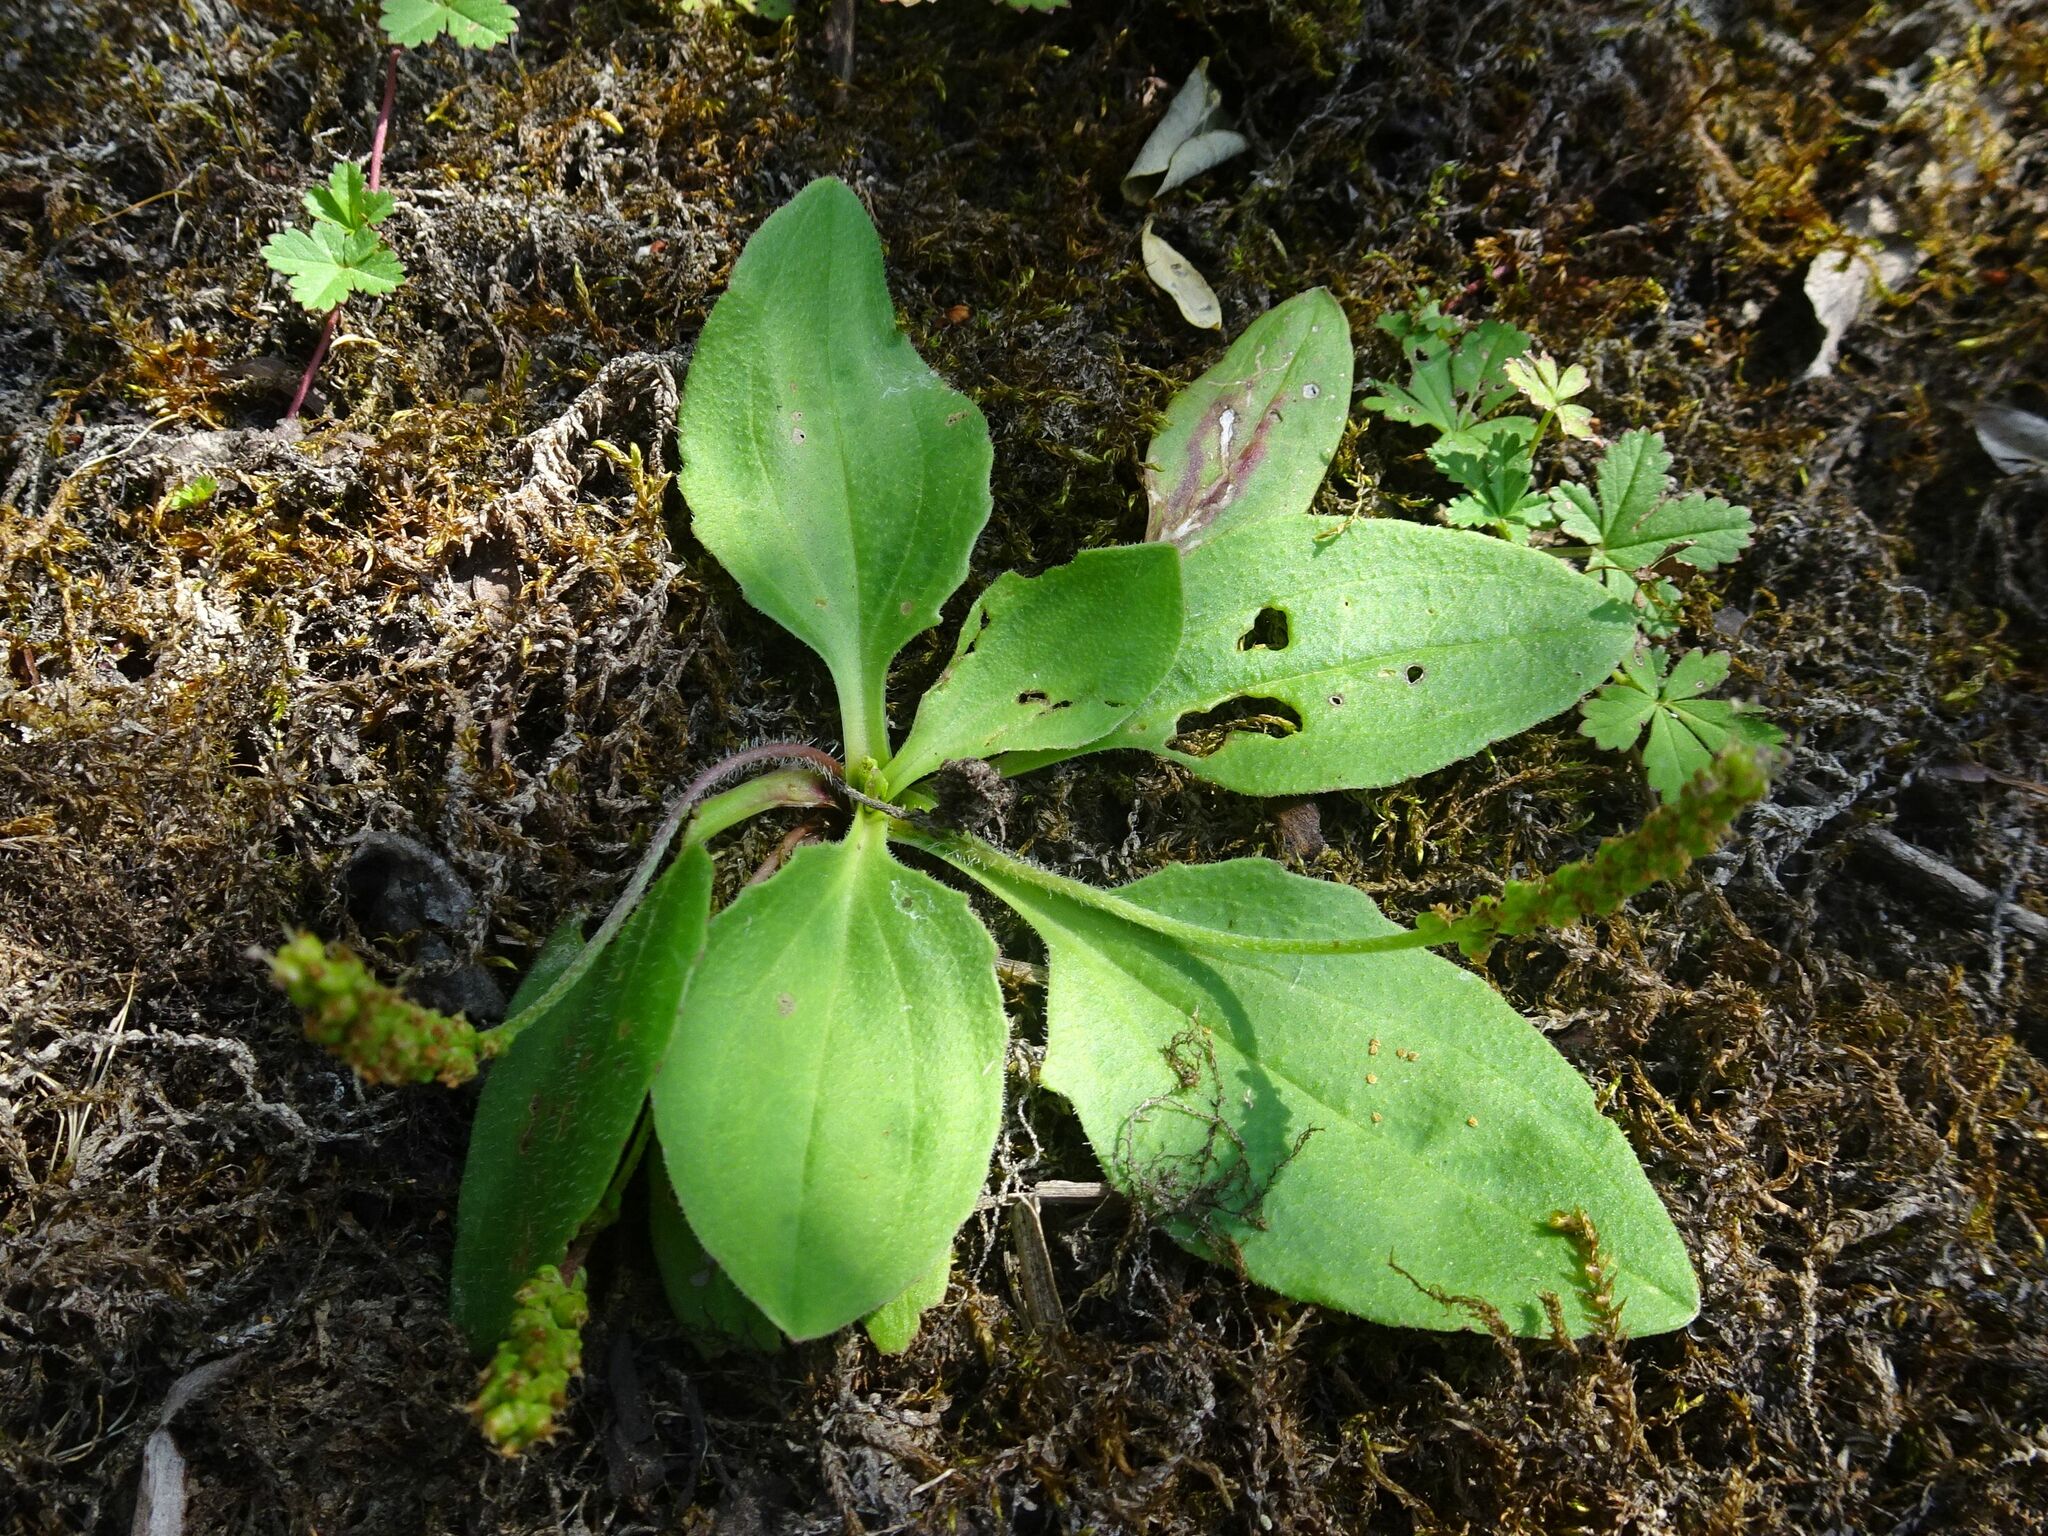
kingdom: Plantae
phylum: Tracheophyta
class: Magnoliopsida
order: Lamiales
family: Plantaginaceae
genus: Plantago
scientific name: Plantago major
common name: Common plantain
